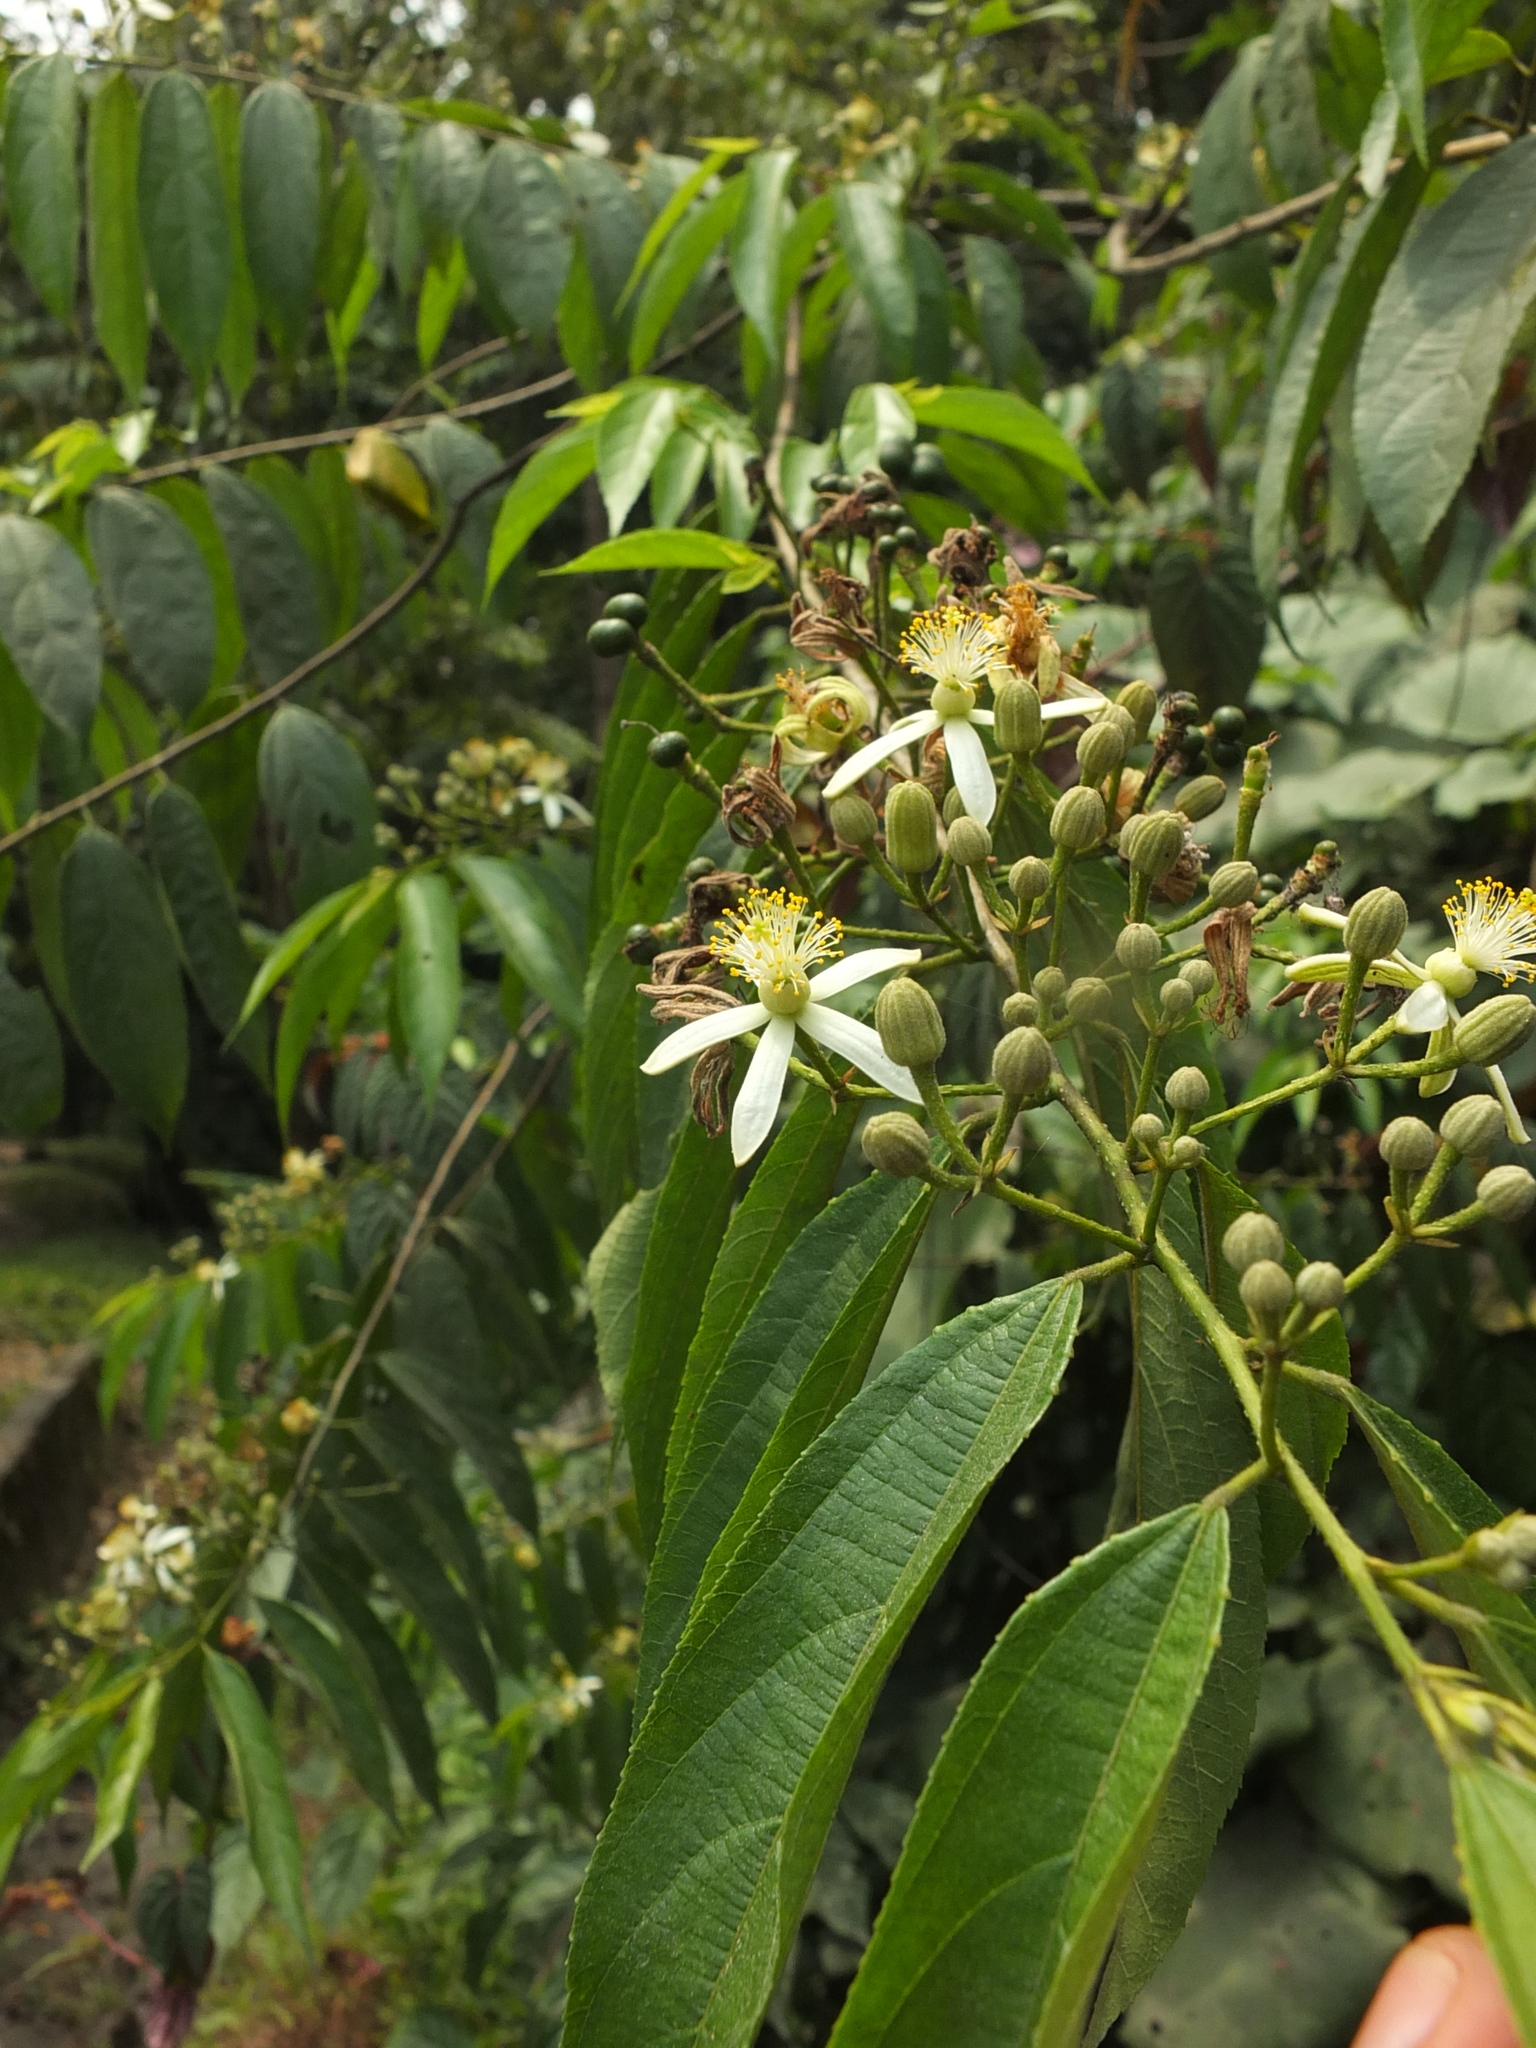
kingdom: Plantae
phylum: Tracheophyta
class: Magnoliopsida
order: Malvales
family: Malvaceae
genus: Grewia
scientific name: Grewia serrulata
